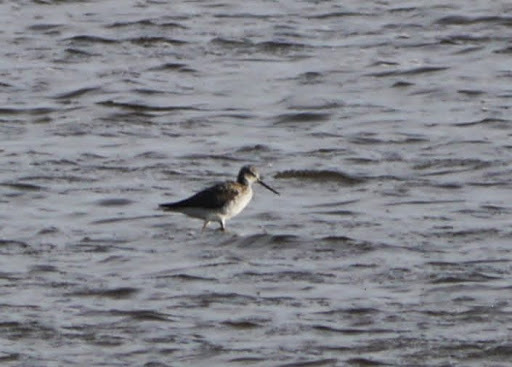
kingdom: Animalia
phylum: Chordata
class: Aves
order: Charadriiformes
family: Scolopacidae
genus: Tringa
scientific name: Tringa melanoleuca
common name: Greater yellowlegs
